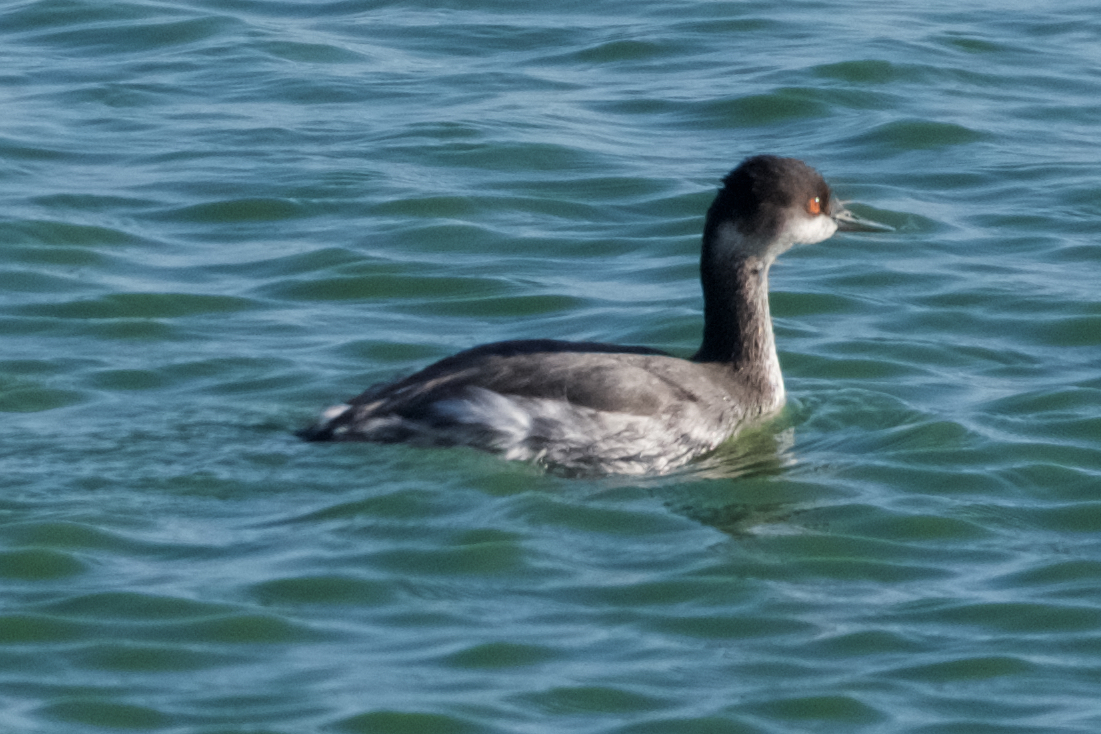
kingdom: Animalia
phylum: Chordata
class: Aves
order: Podicipediformes
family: Podicipedidae
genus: Podiceps
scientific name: Podiceps nigricollis
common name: Black-necked grebe
